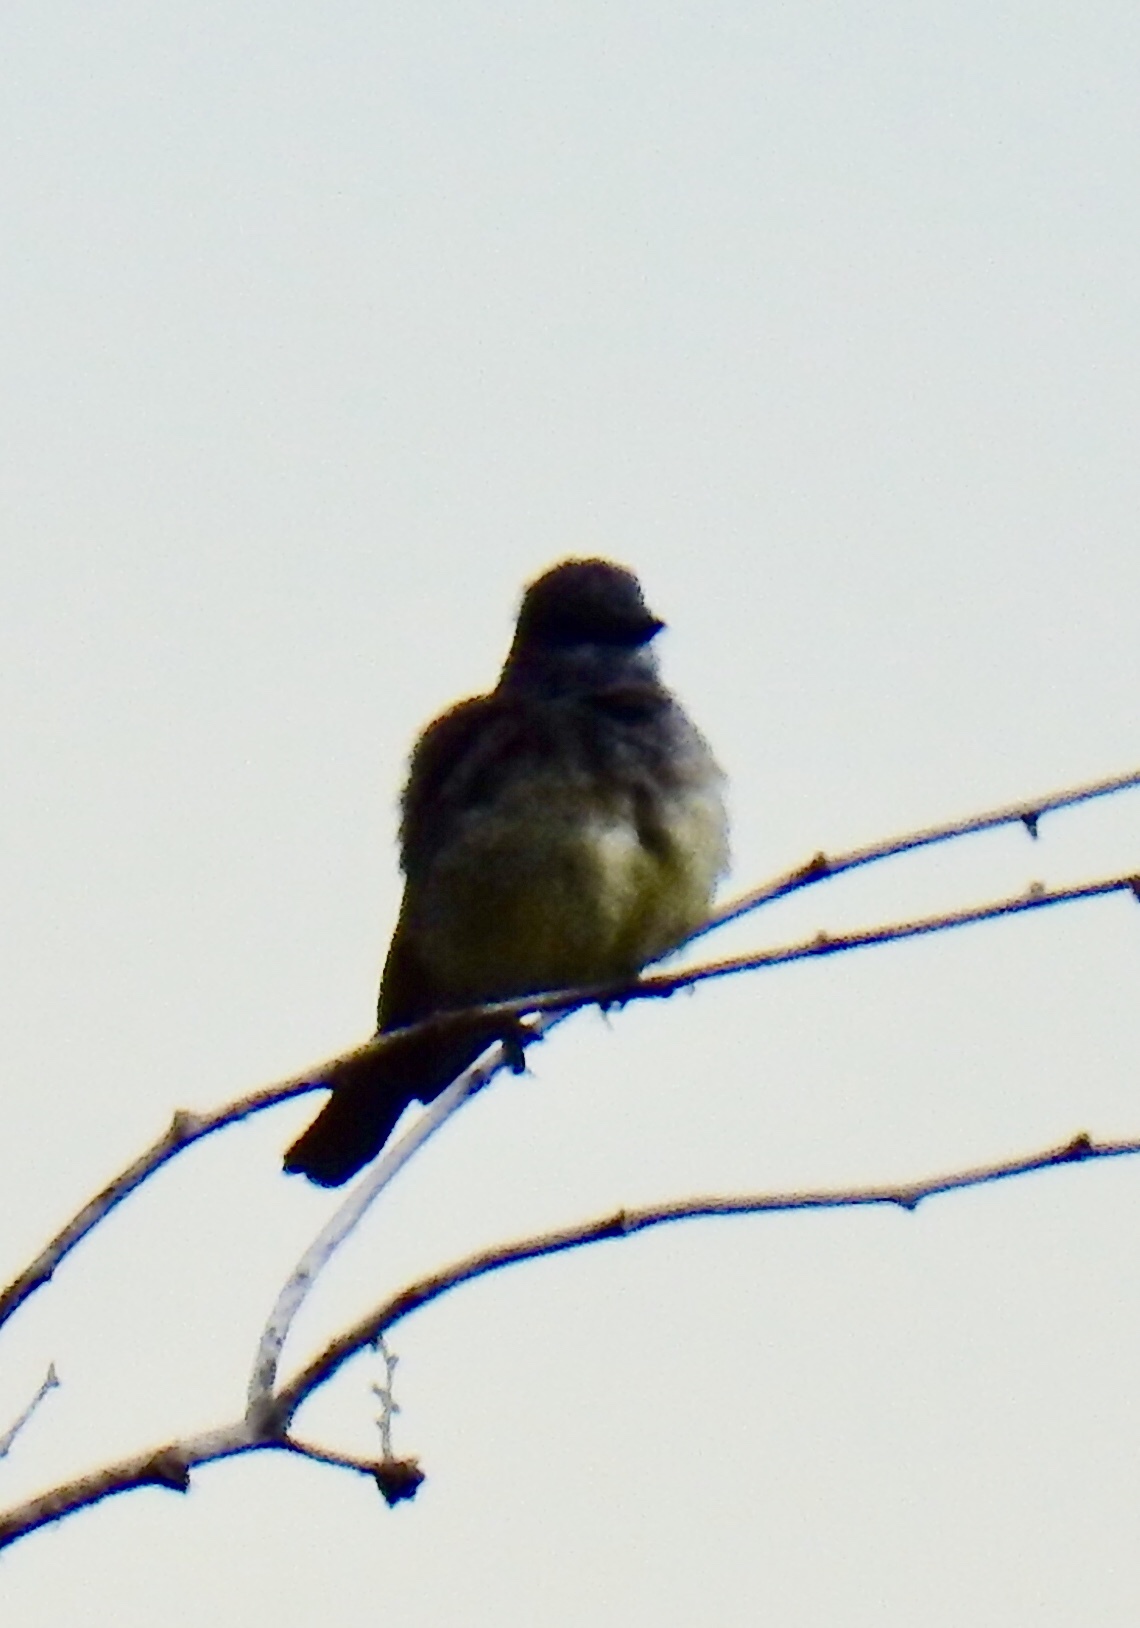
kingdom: Animalia
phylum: Chordata
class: Aves
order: Passeriformes
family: Tyrannidae
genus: Tyrannus
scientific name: Tyrannus vociferans
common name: Cassin's kingbird
